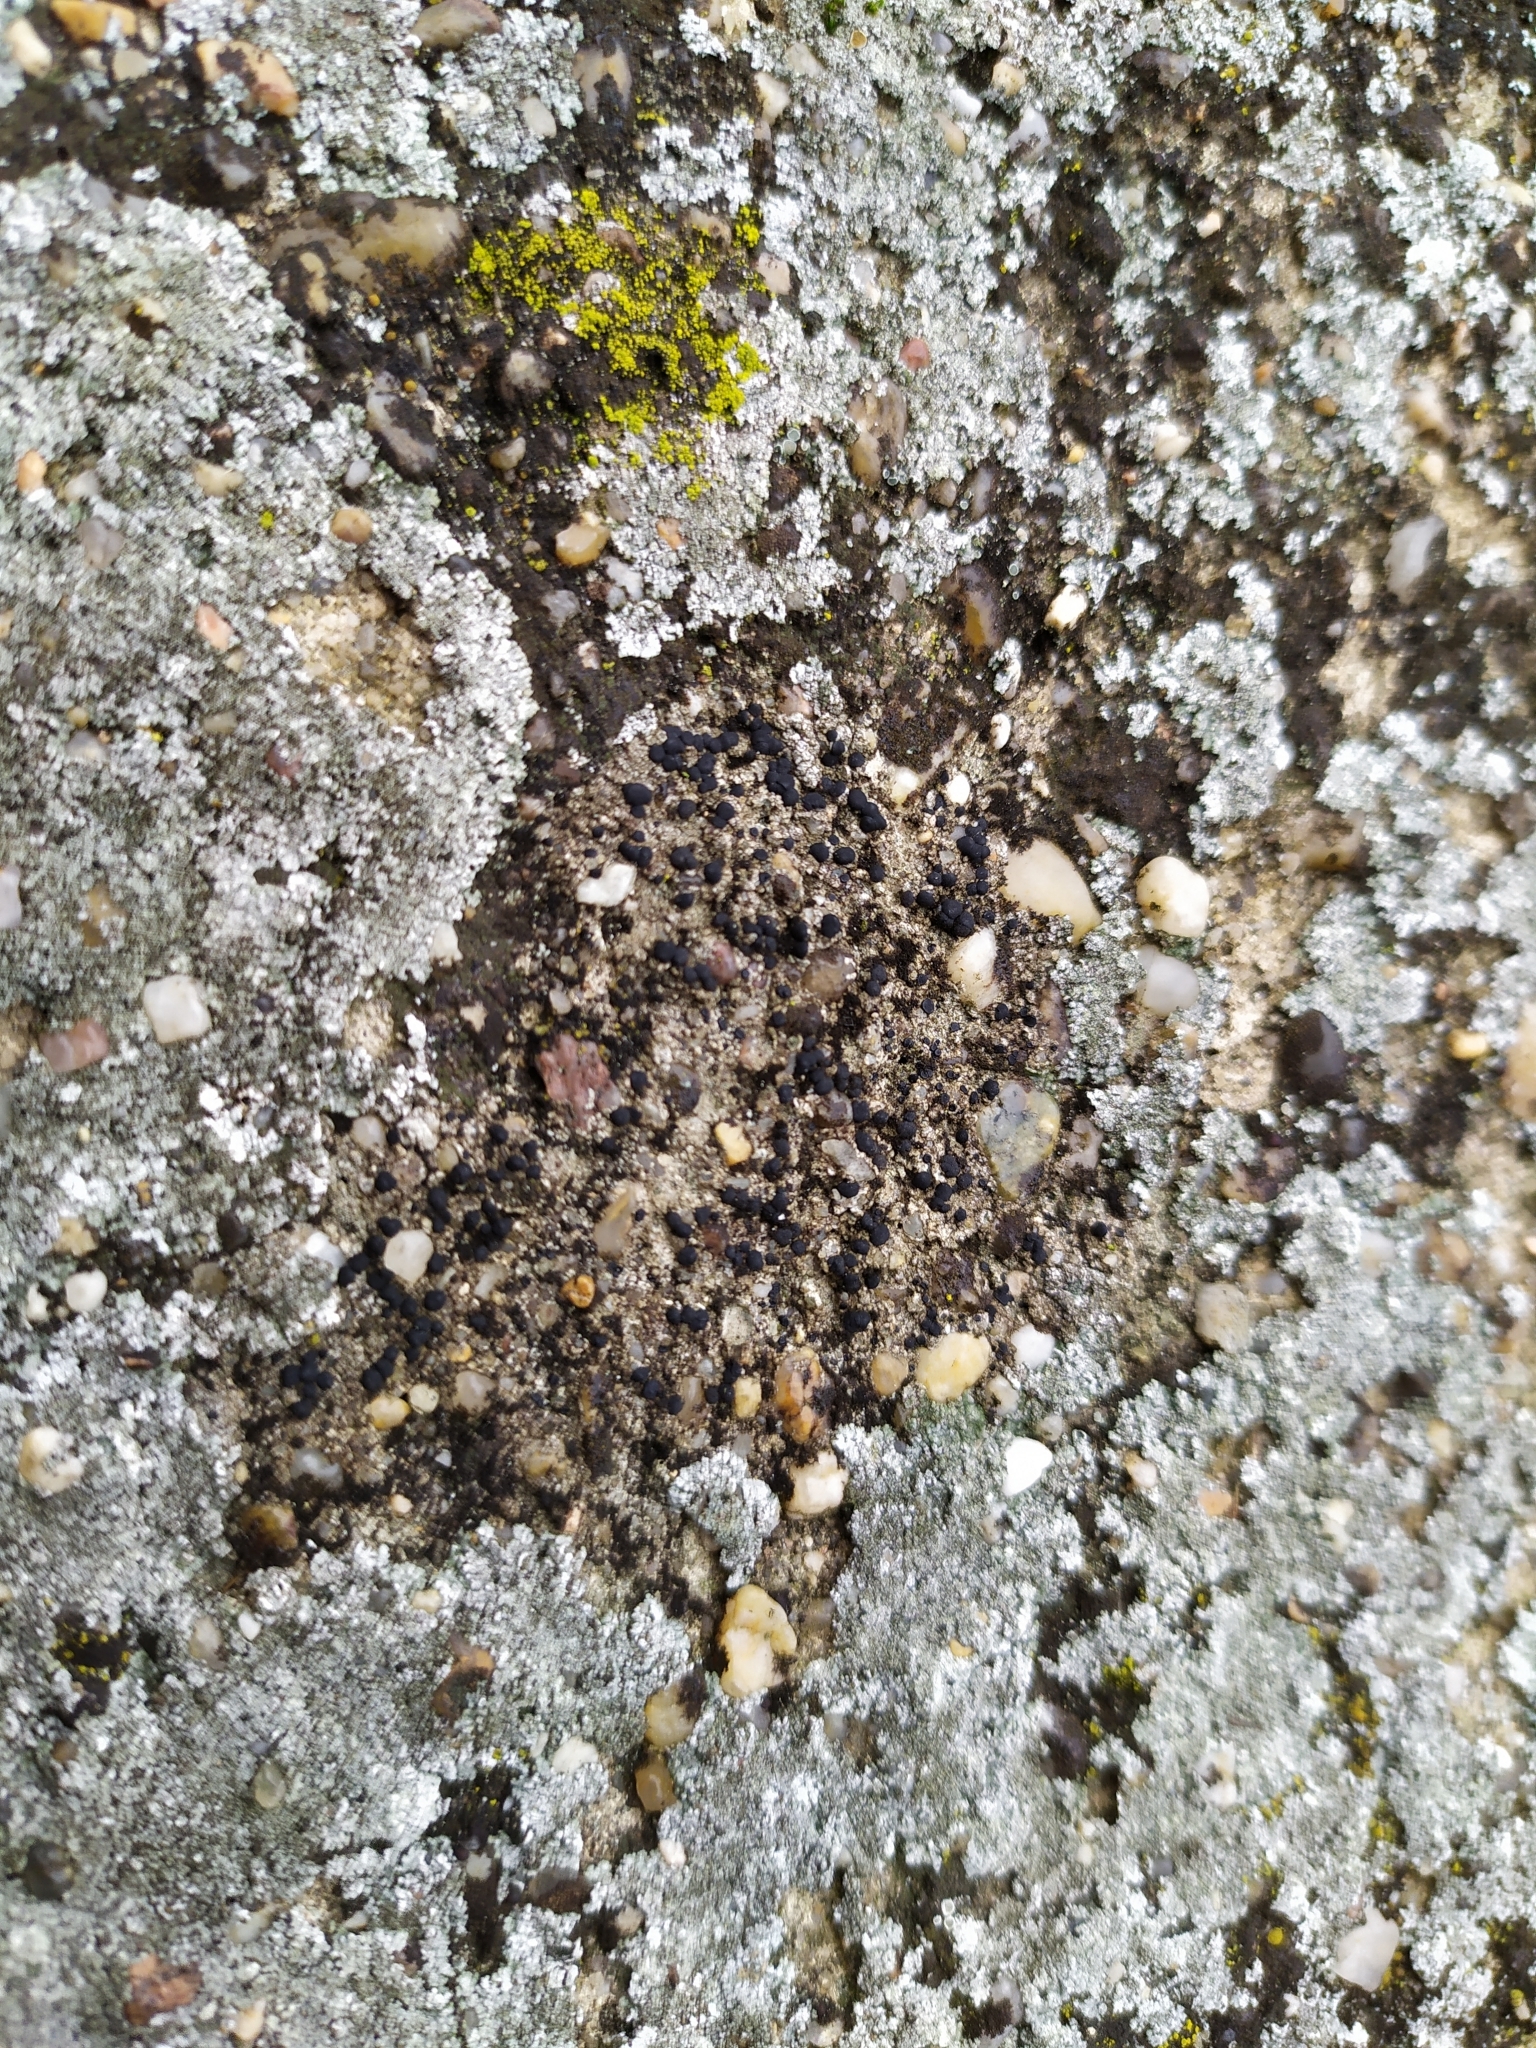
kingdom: Fungi
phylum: Ascomycota
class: Lecanoromycetes
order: Lecanorales
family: Lecanoraceae
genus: Lecidella
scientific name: Lecidella stigmatea
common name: Limestone disc lichen
